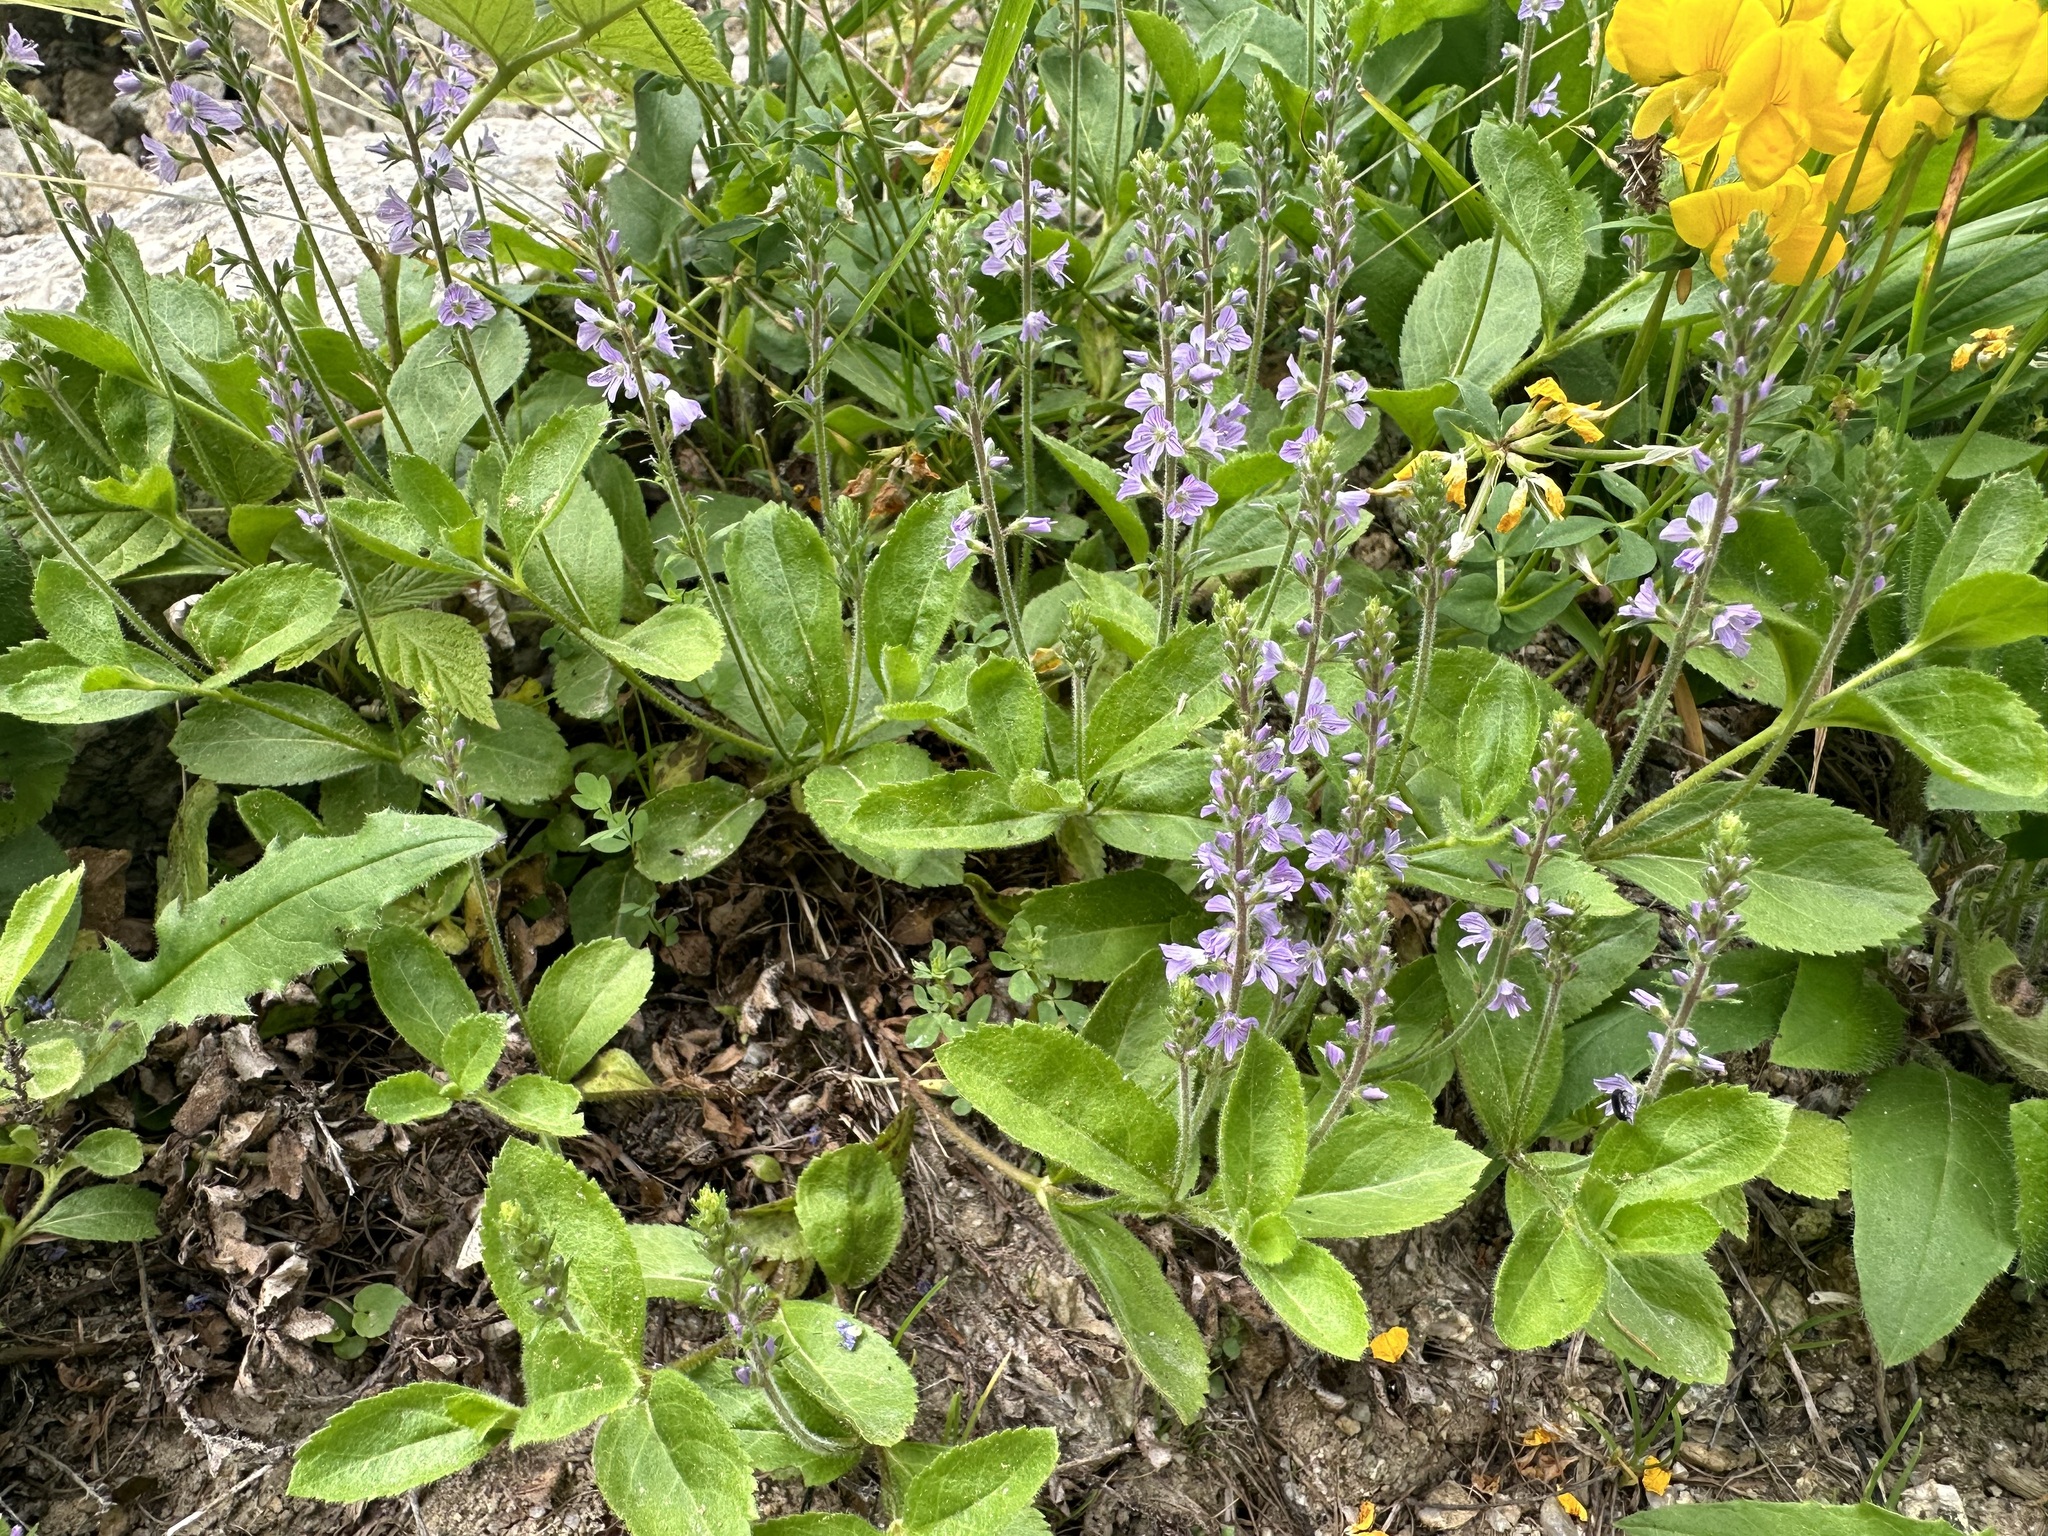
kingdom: Plantae
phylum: Tracheophyta
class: Magnoliopsida
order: Lamiales
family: Plantaginaceae
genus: Veronica
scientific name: Veronica officinalis
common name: Common speedwell
